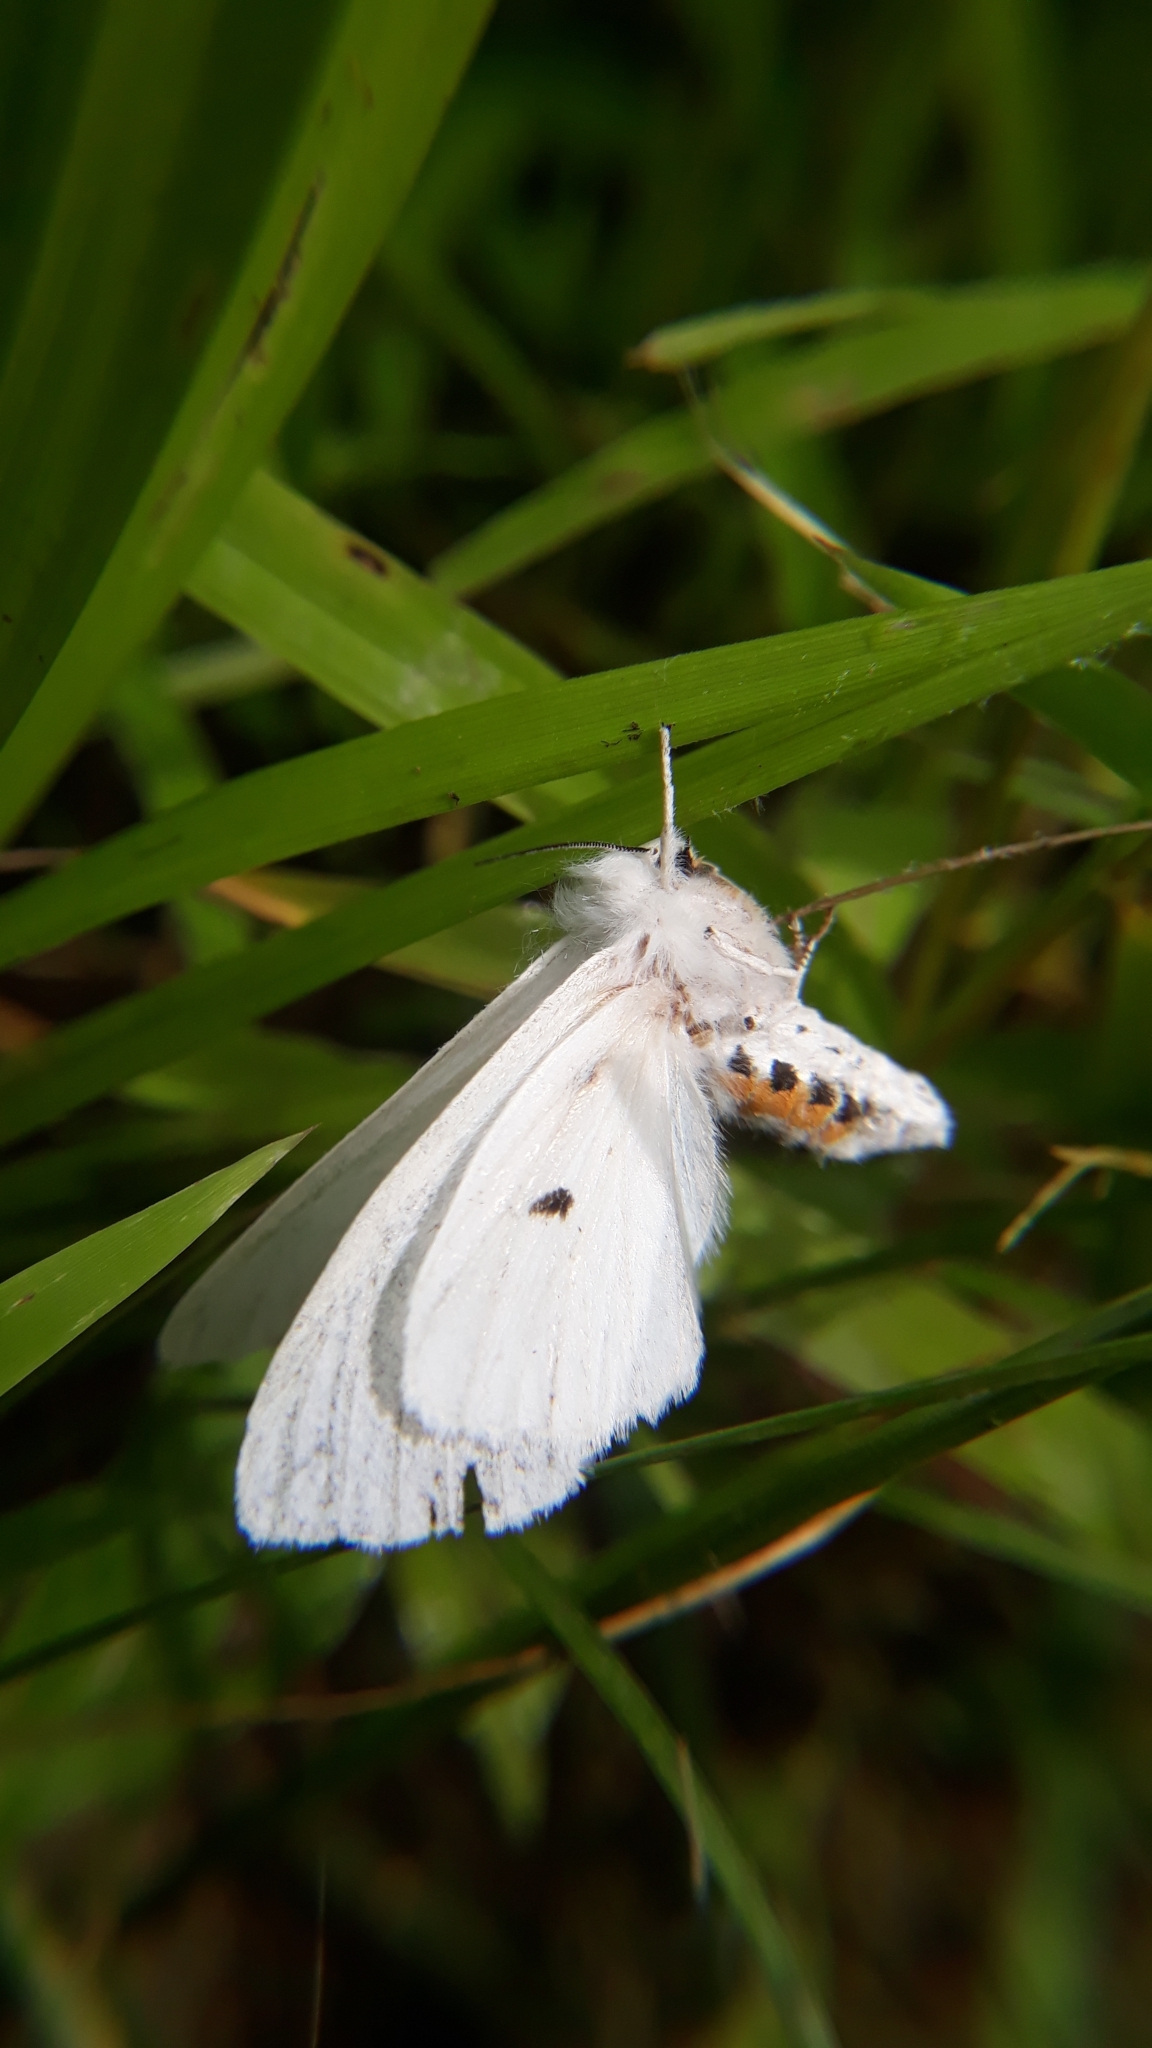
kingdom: Animalia
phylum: Arthropoda
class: Insecta
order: Lepidoptera
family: Erebidae
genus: Spilosoma
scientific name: Spilosoma virginica
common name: Virginia tiger moth
